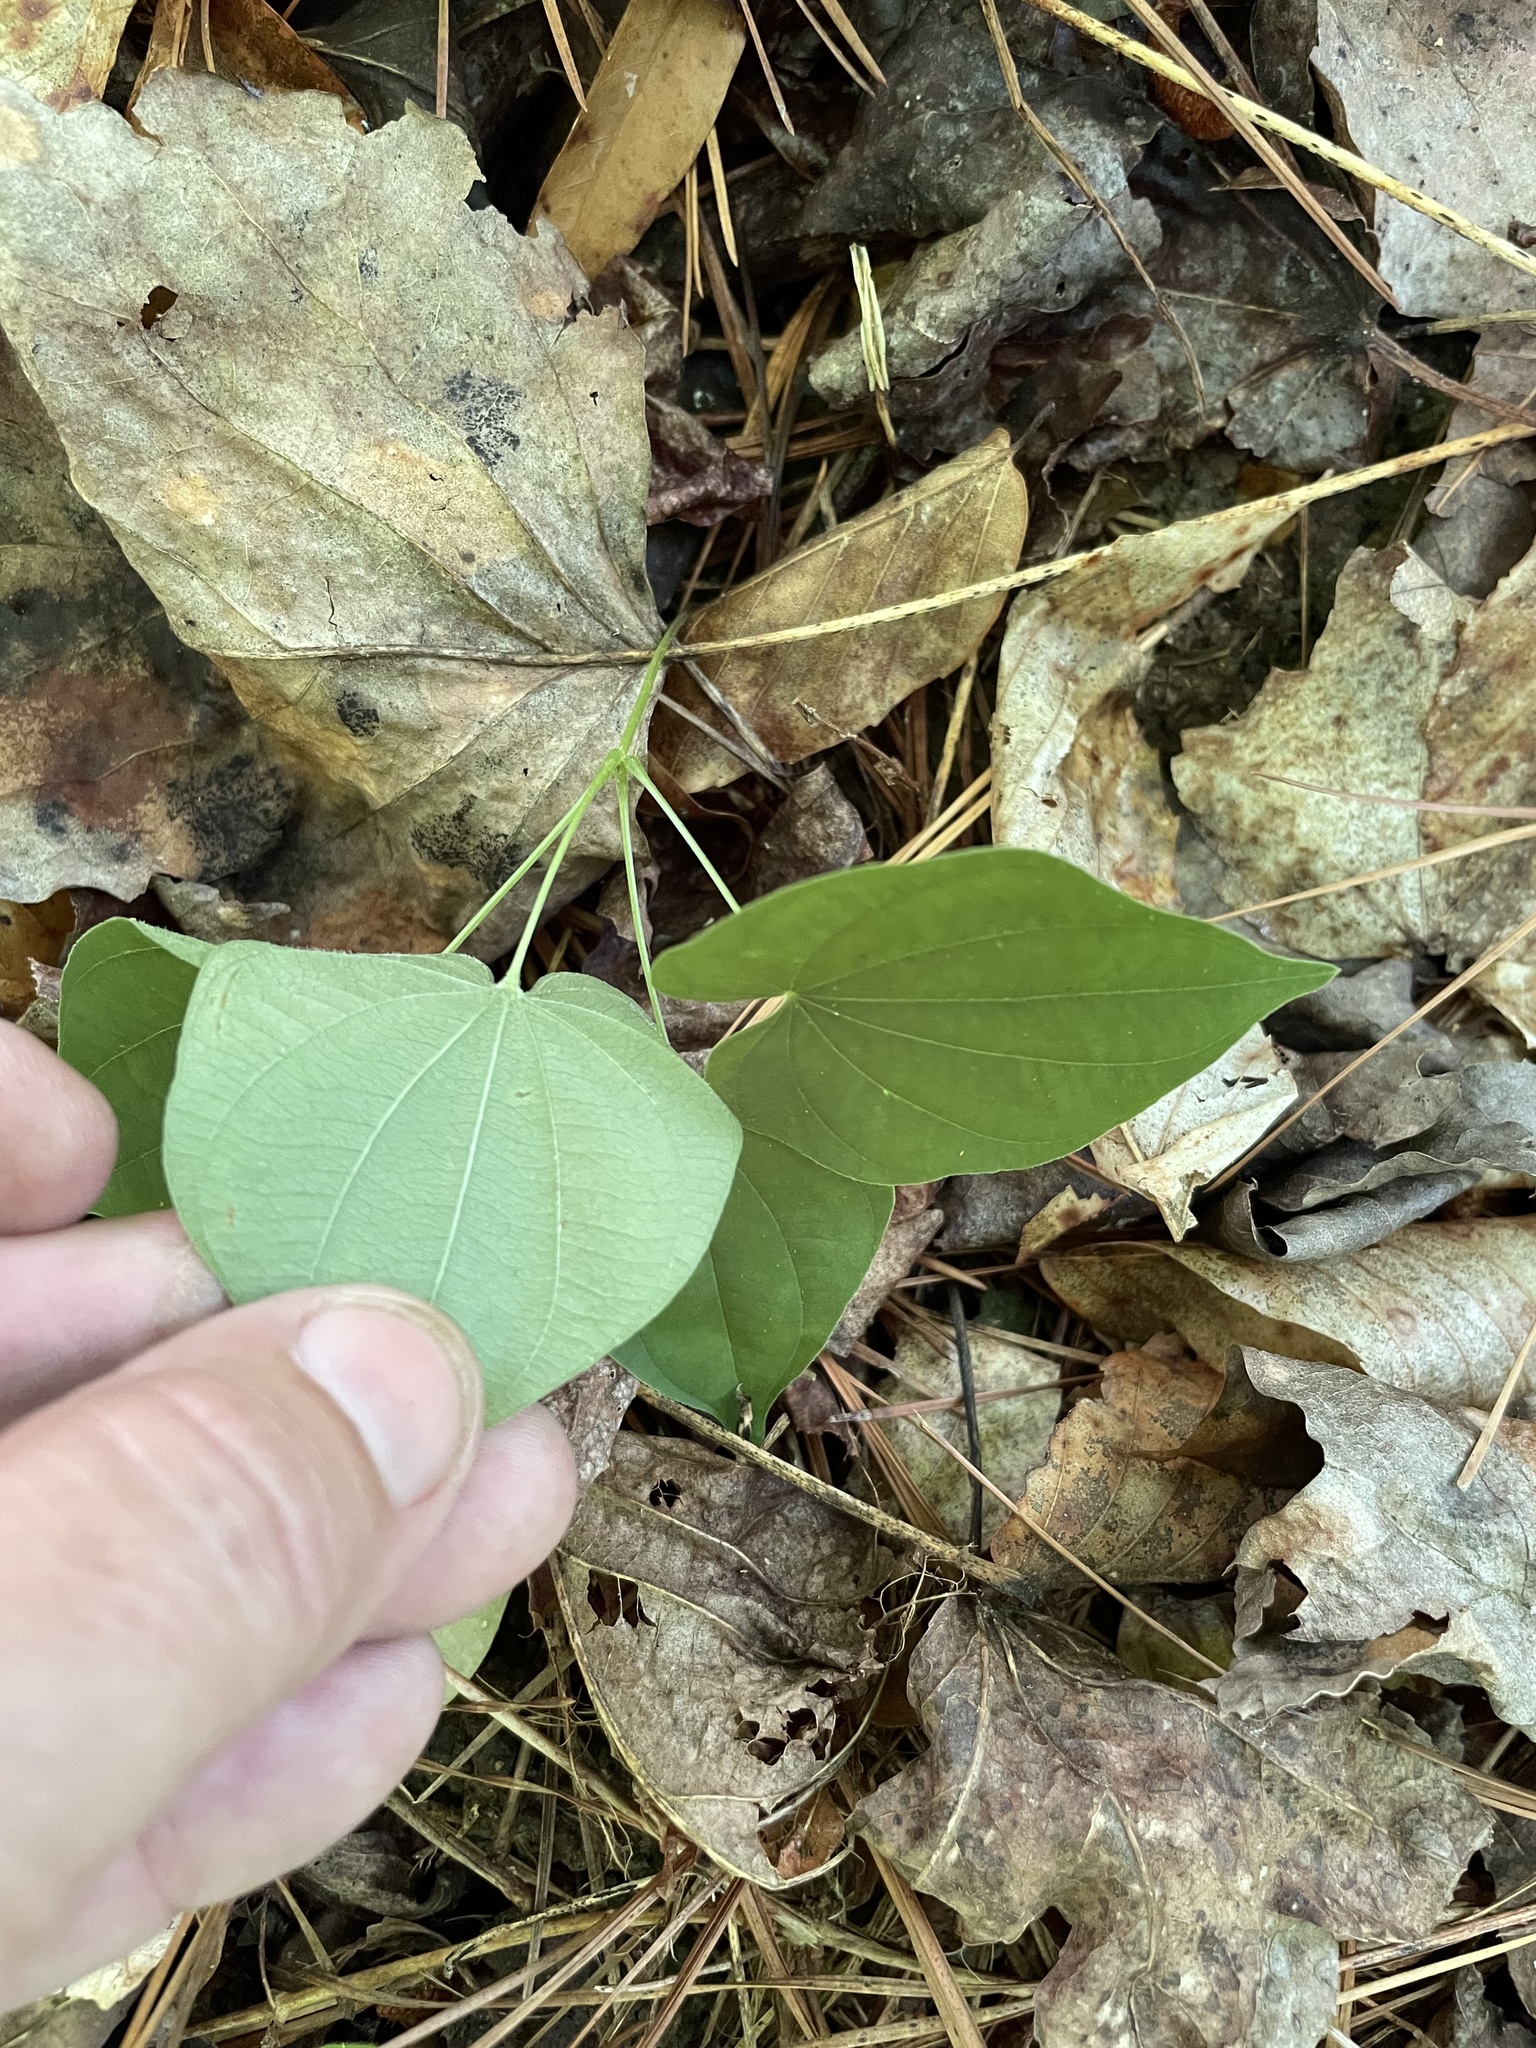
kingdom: Plantae
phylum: Tracheophyta
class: Liliopsida
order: Dioscoreales
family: Dioscoreaceae
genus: Dioscorea
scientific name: Dioscorea villosa
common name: Wild yam
